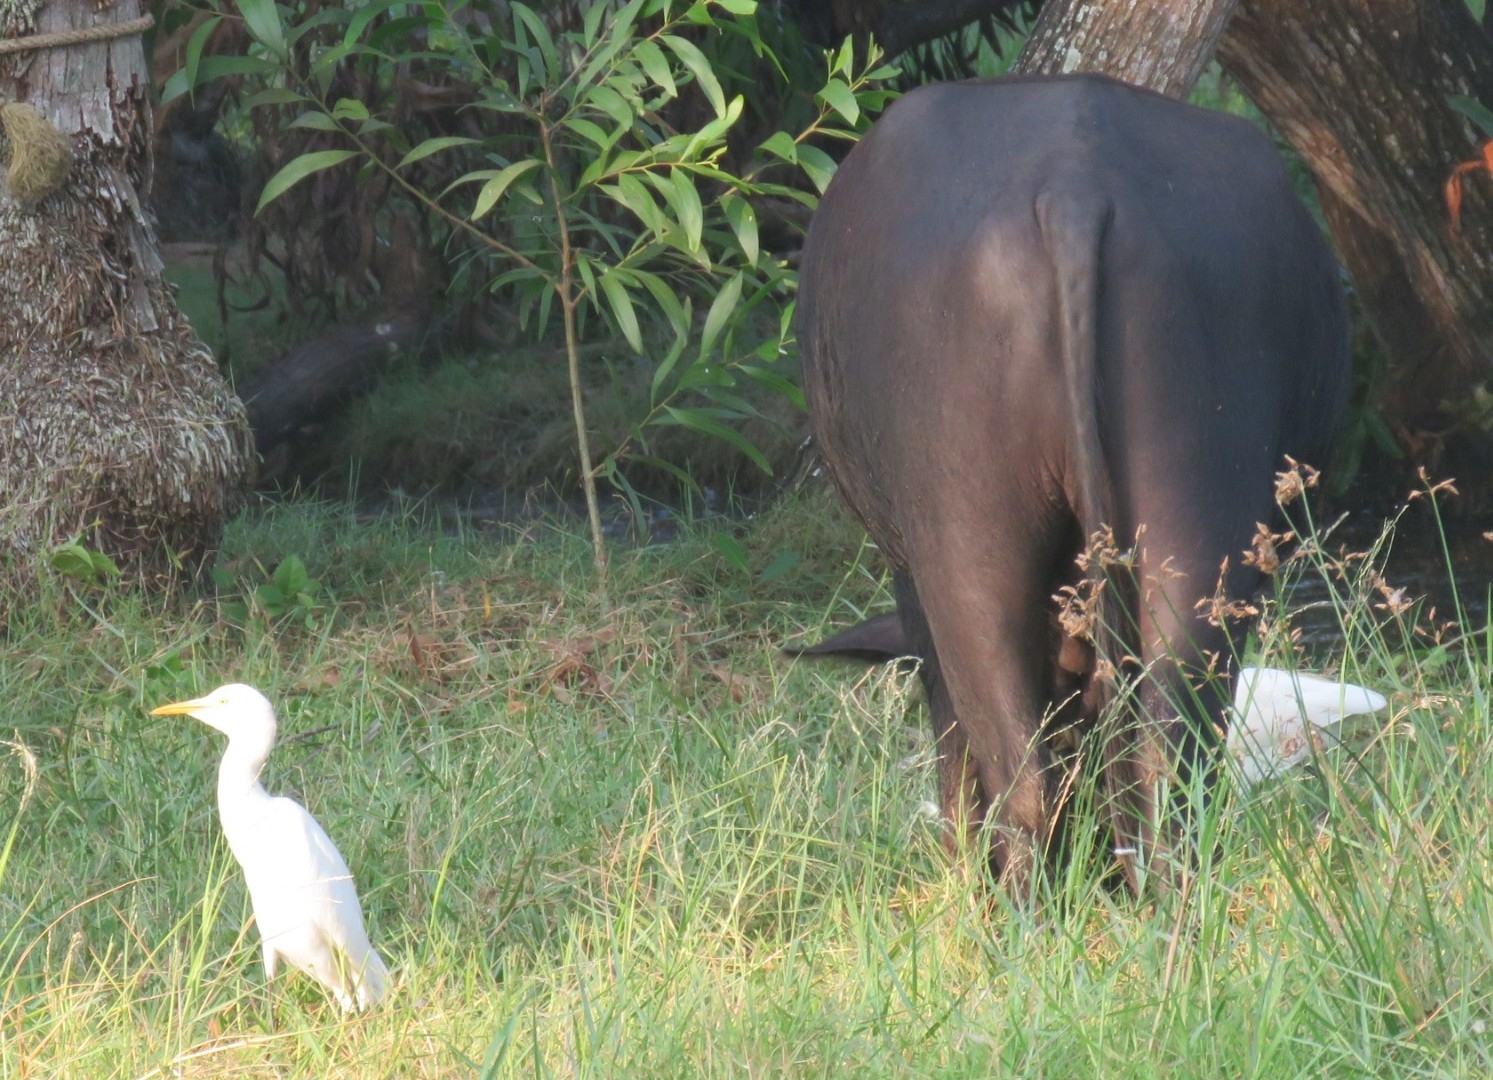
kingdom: Animalia
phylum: Chordata
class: Aves
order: Pelecaniformes
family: Ardeidae
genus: Bubulcus
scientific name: Bubulcus coromandus
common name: Eastern cattle egret
